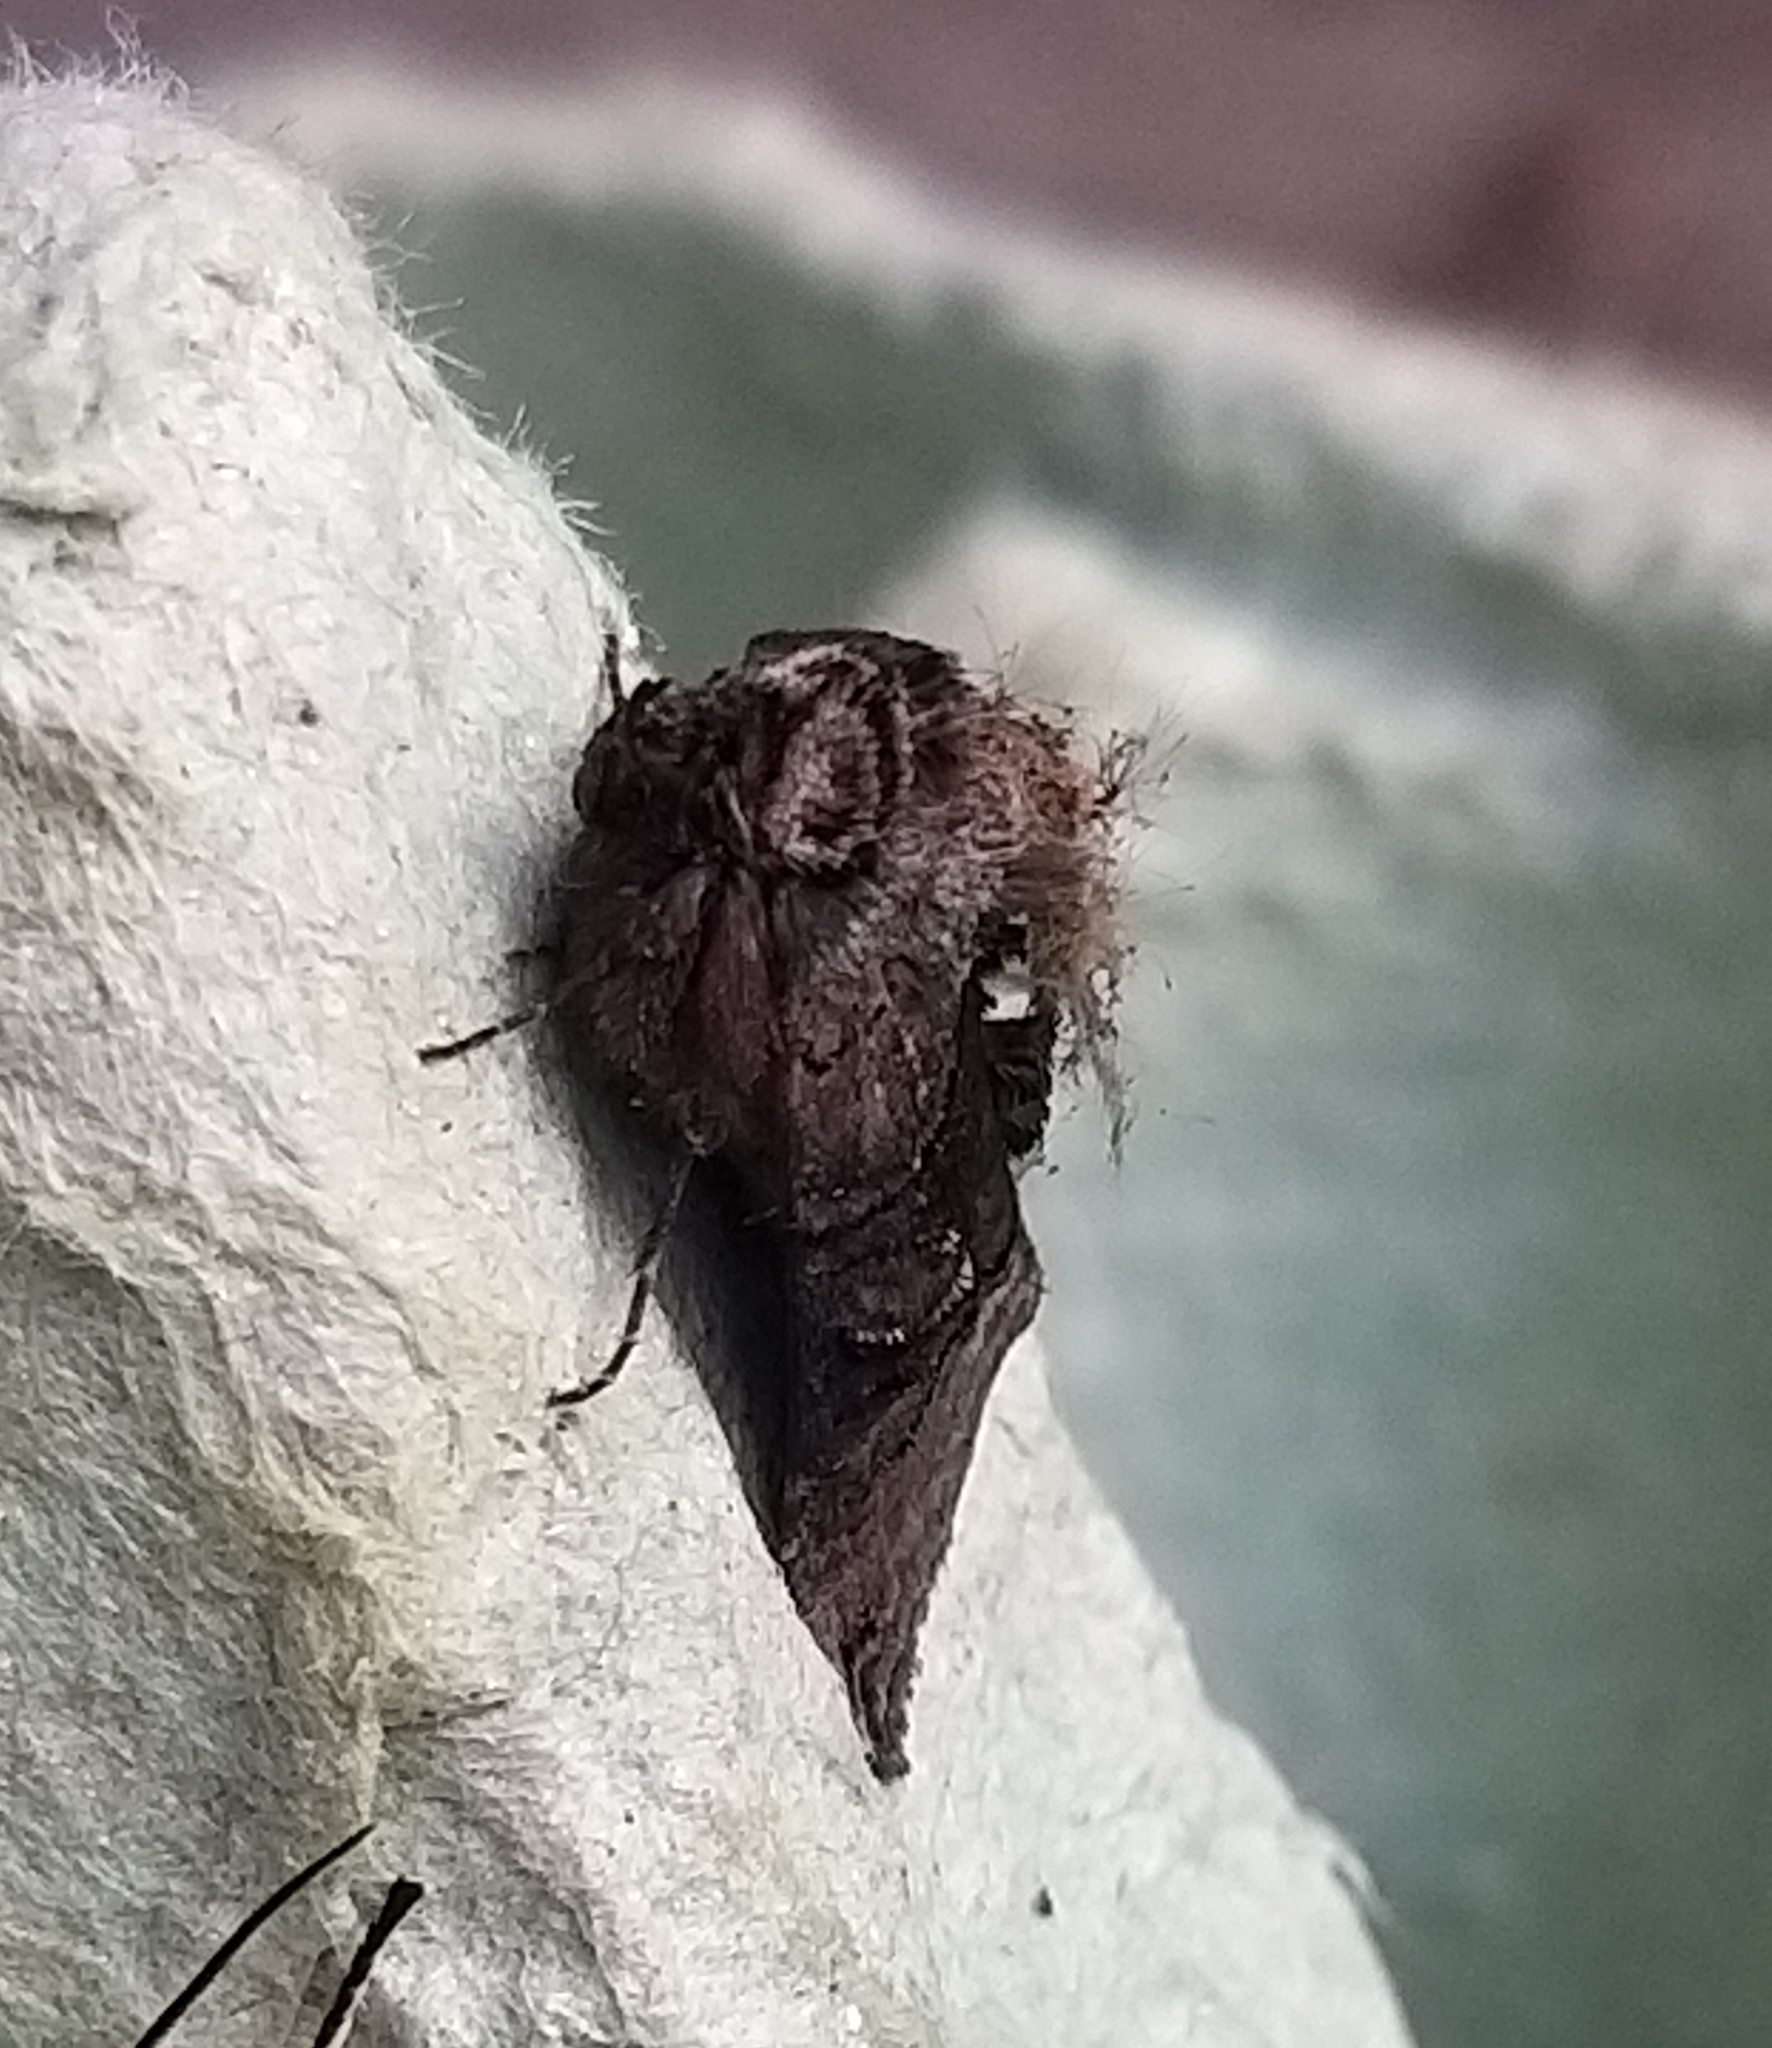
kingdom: Animalia
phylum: Arthropoda
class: Insecta
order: Lepidoptera
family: Noctuidae
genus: Abrostola
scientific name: Abrostola triplasia
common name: Dark spectacle
